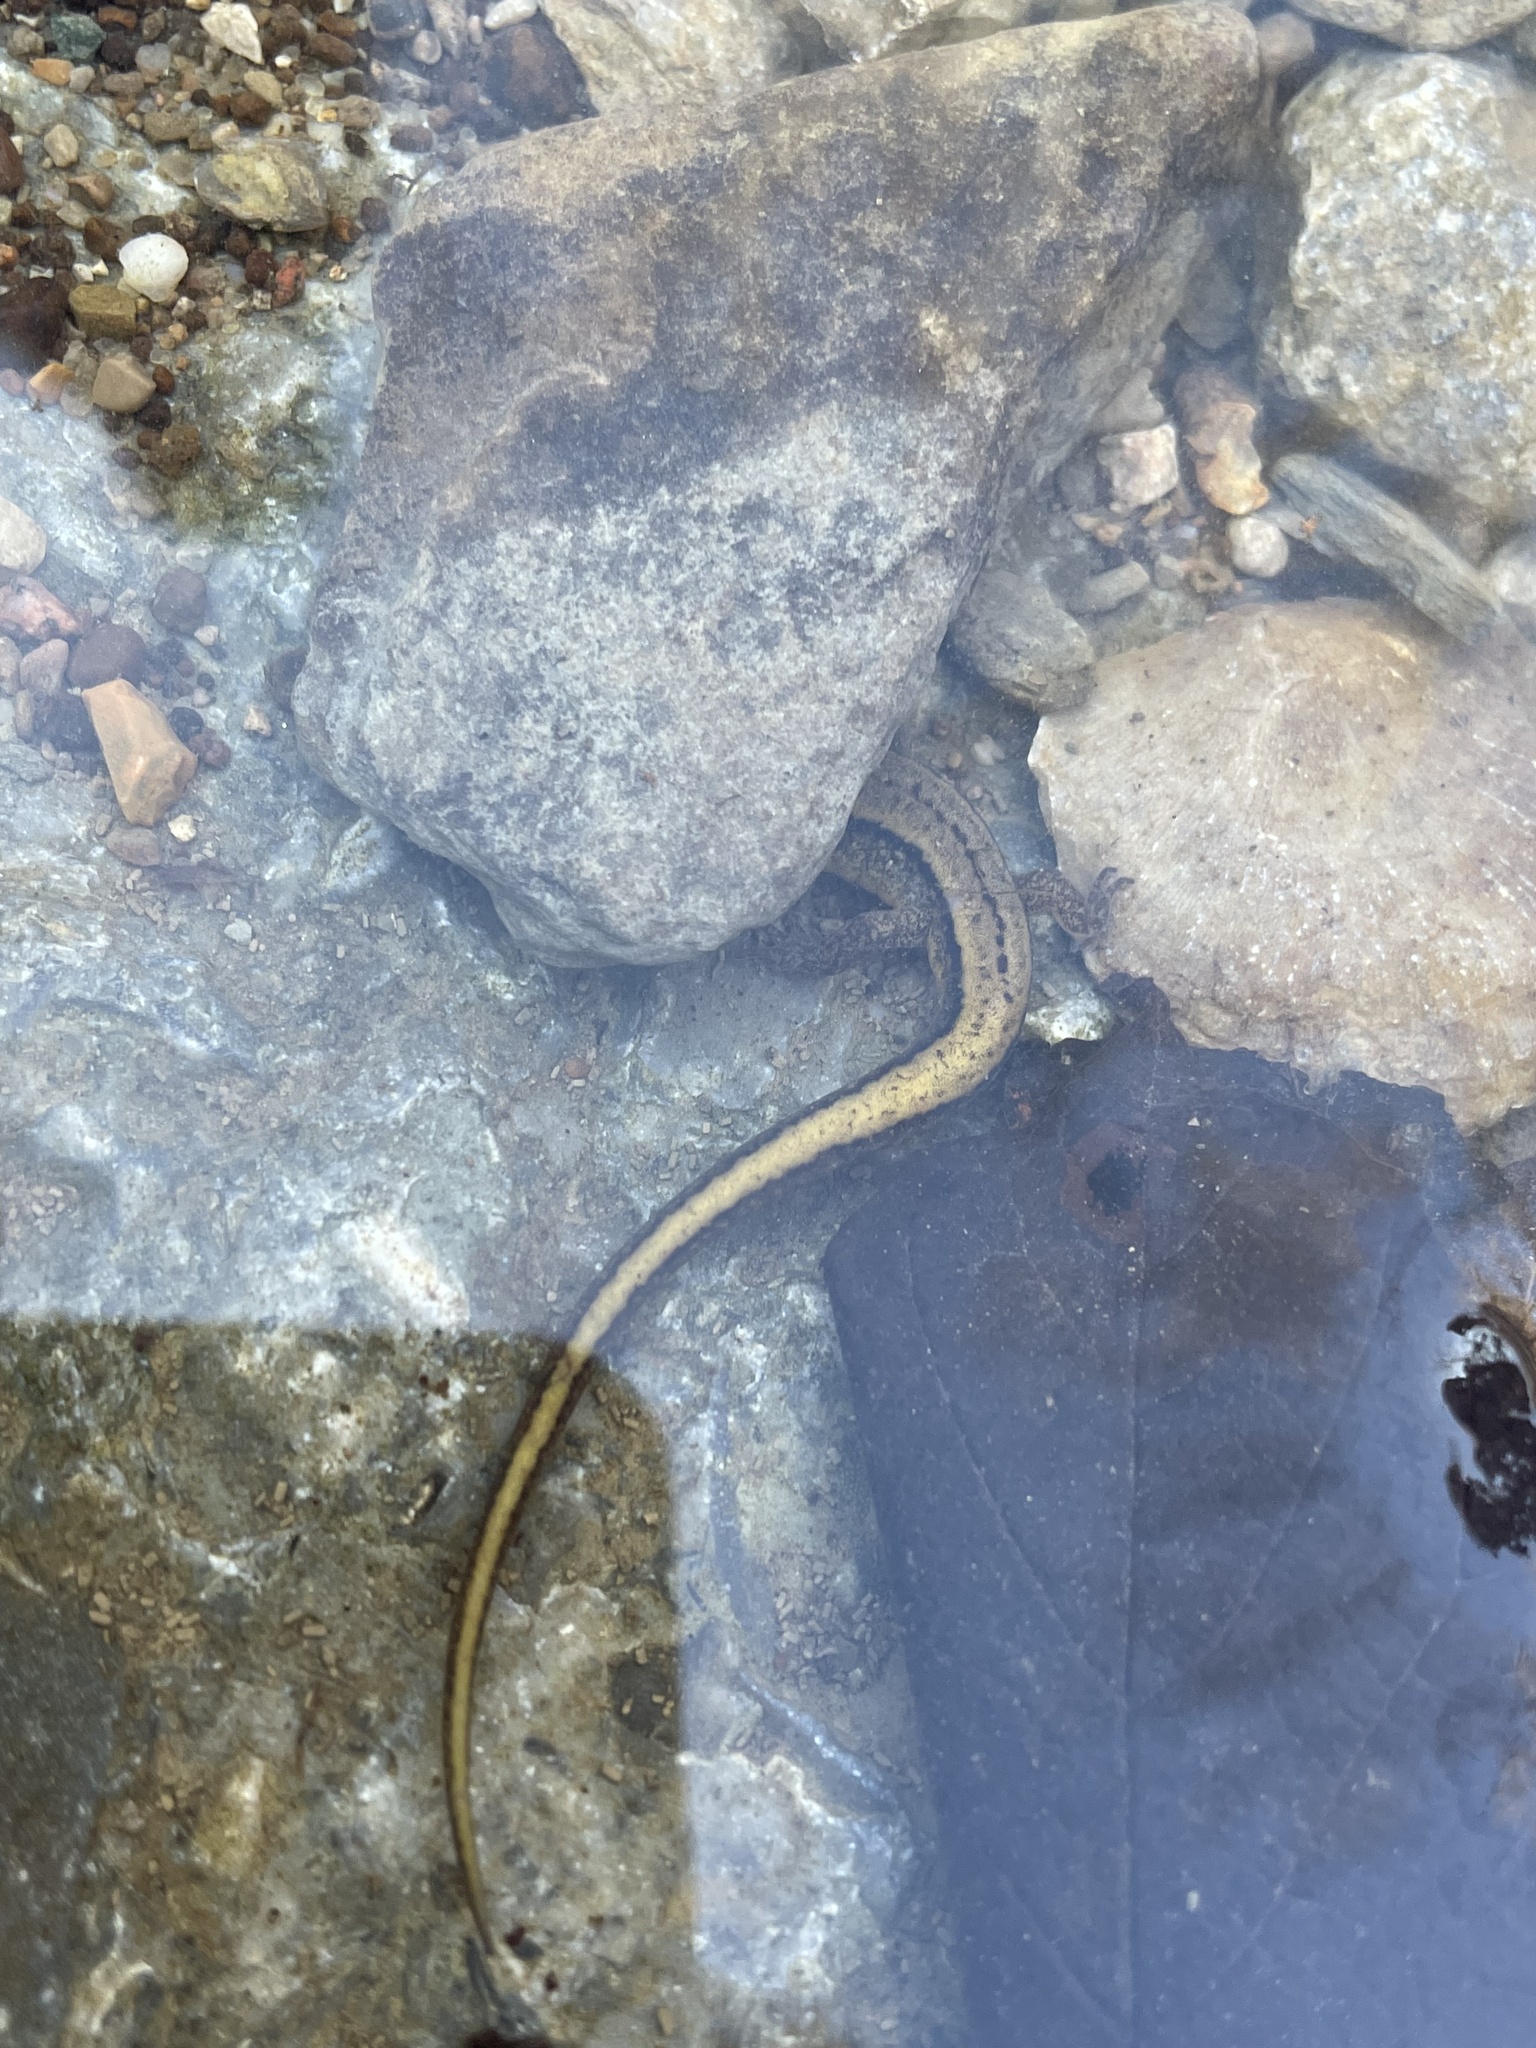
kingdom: Animalia
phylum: Chordata
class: Amphibia
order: Caudata
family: Plethodontidae
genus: Eurycea
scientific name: Eurycea cirrigera
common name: Southern two-lined salamander
